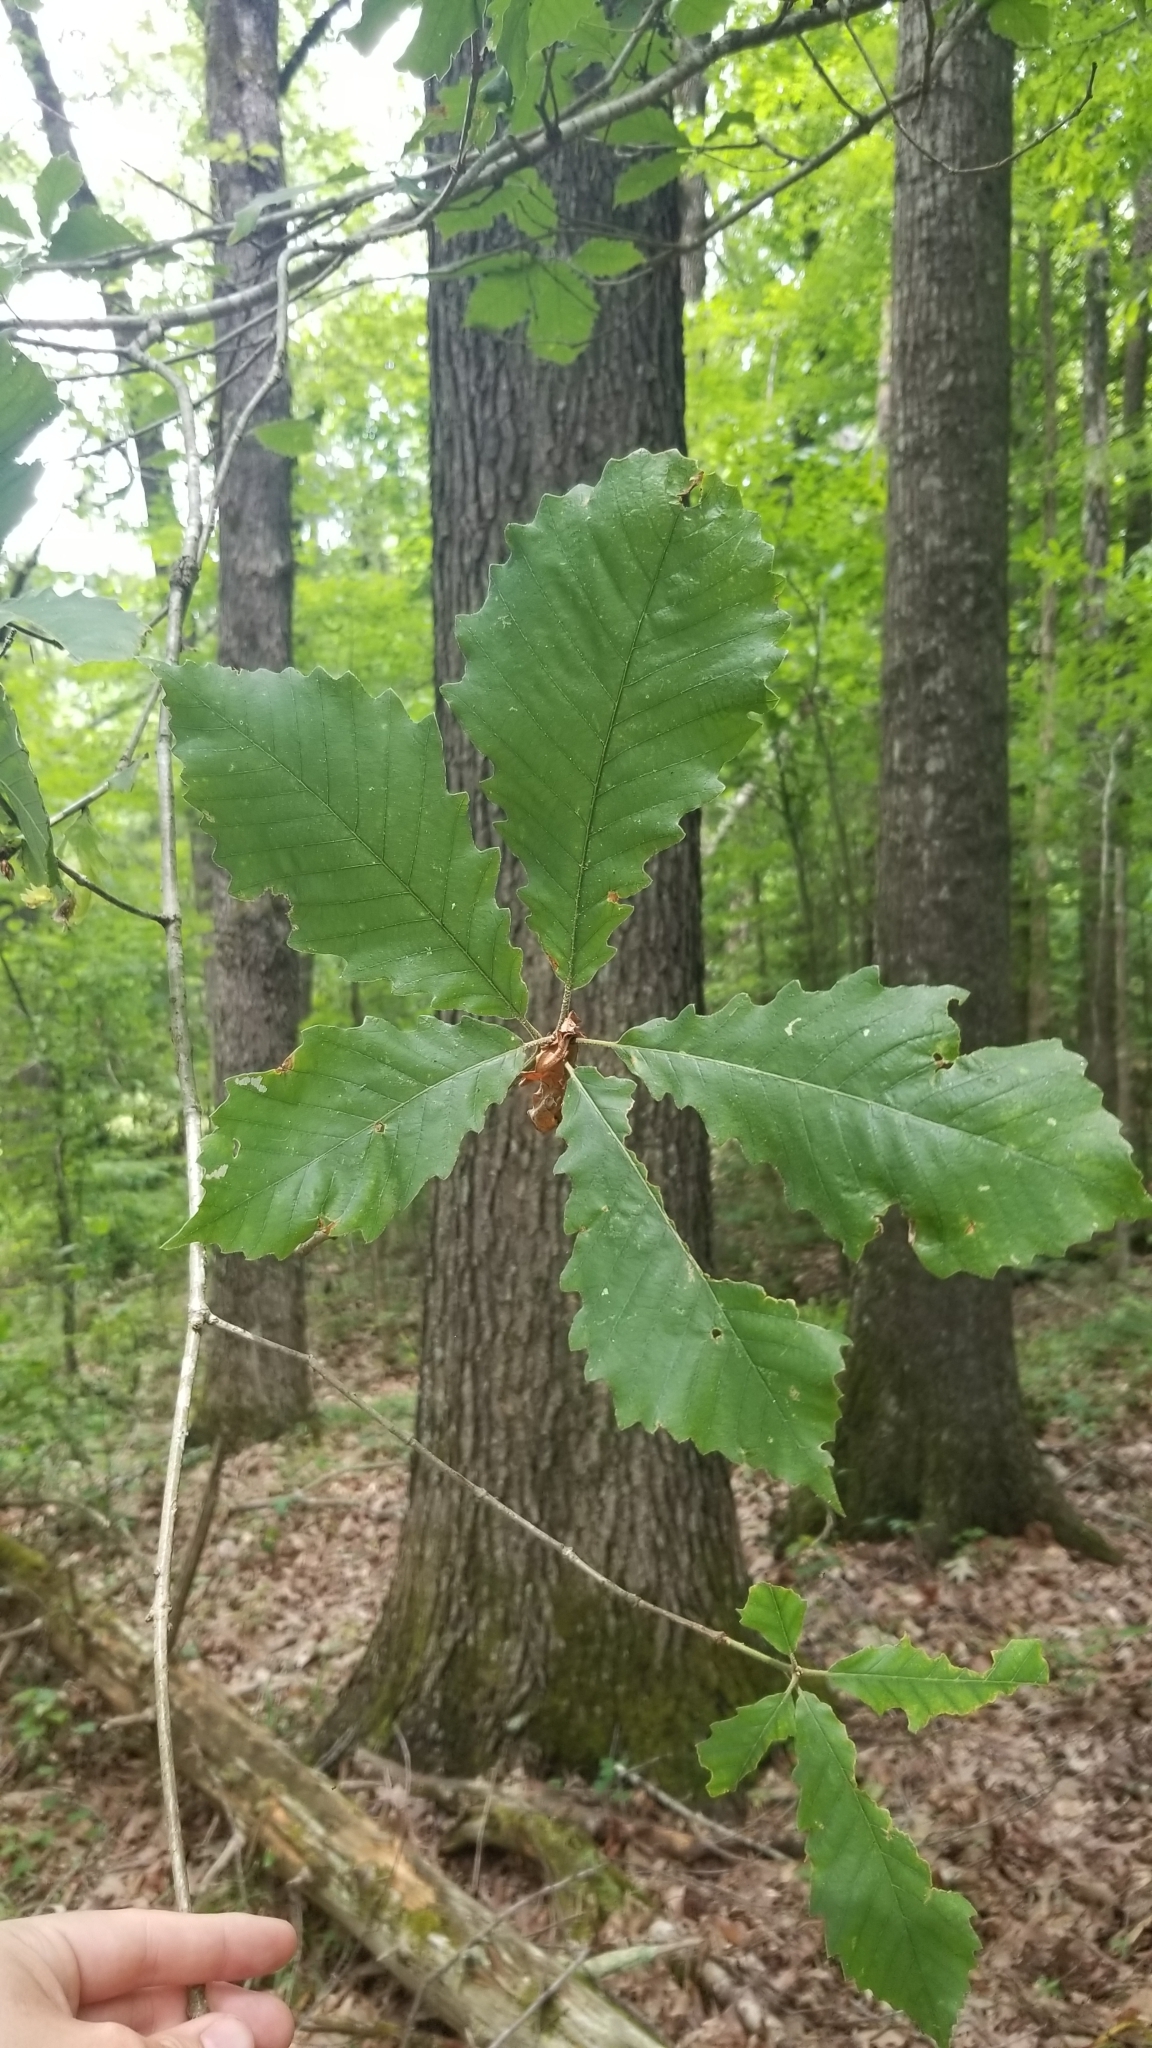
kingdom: Plantae
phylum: Tracheophyta
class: Magnoliopsida
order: Fagales
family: Fagaceae
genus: Quercus
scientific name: Quercus michauxii
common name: Swamp chestnut oak
